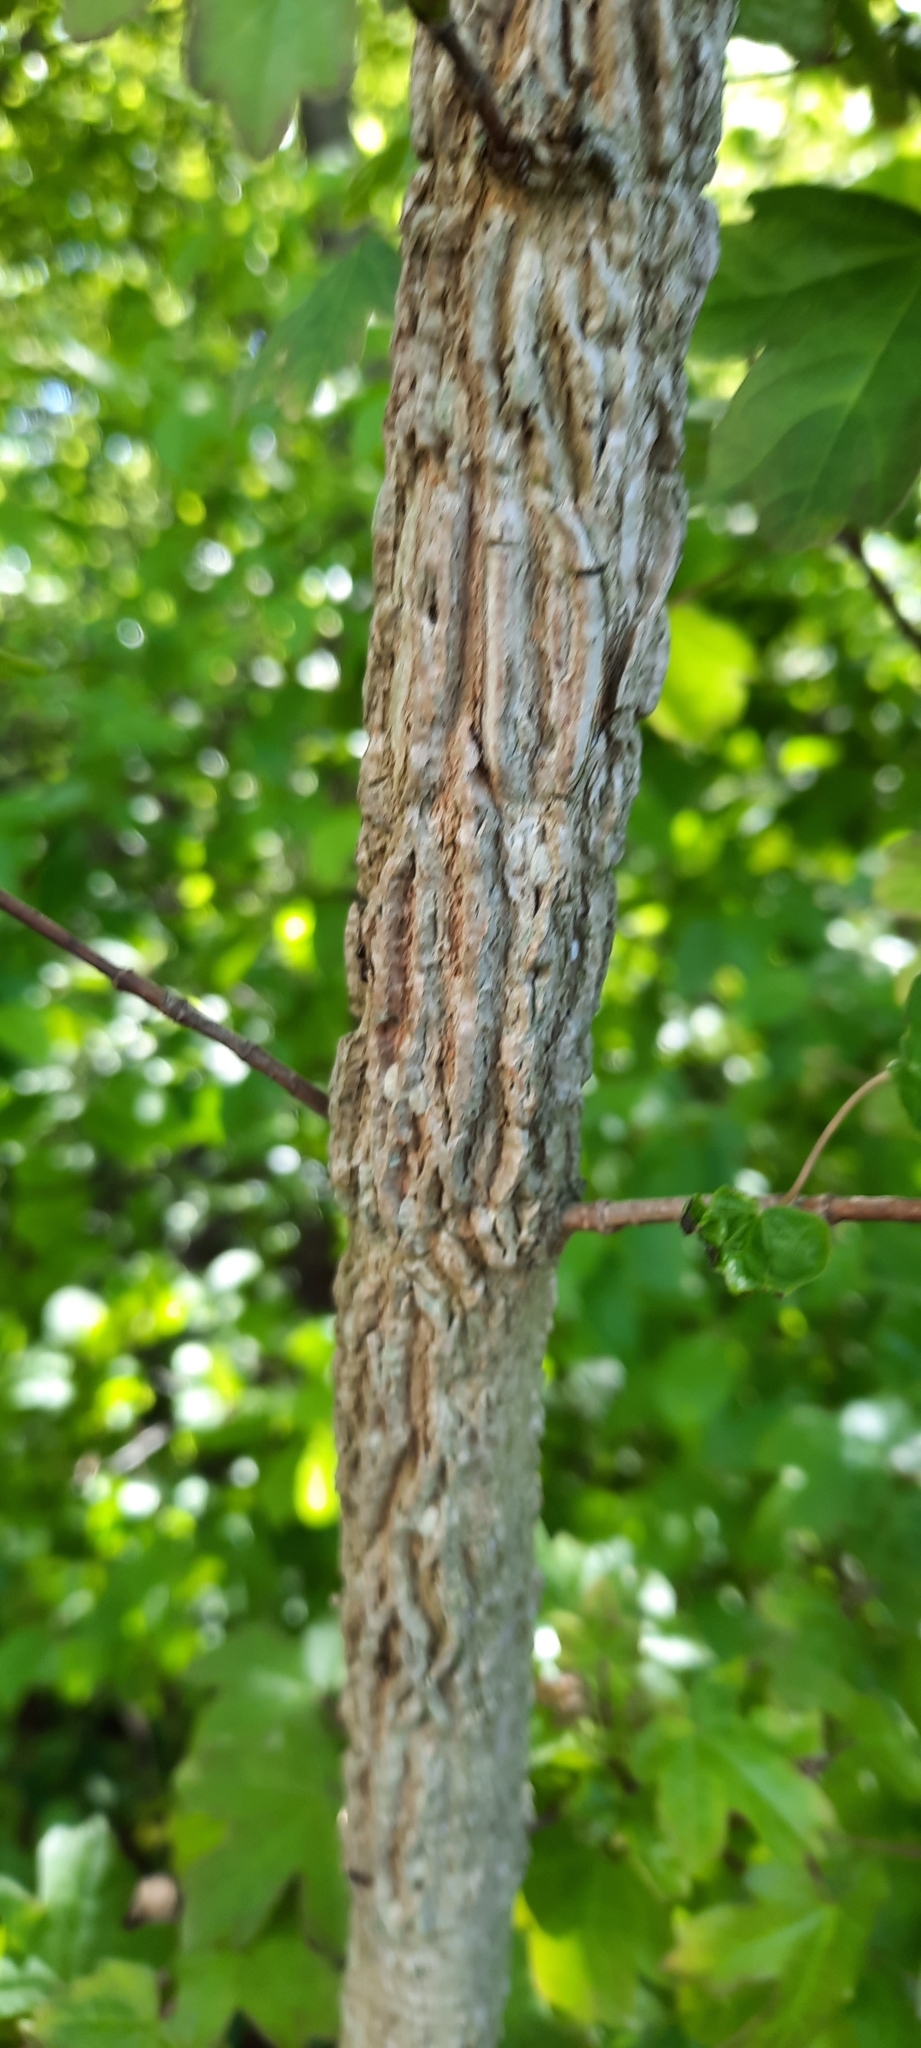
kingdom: Plantae
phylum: Tracheophyta
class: Magnoliopsida
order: Sapindales
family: Sapindaceae
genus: Acer
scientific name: Acer campestre
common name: Field maple
